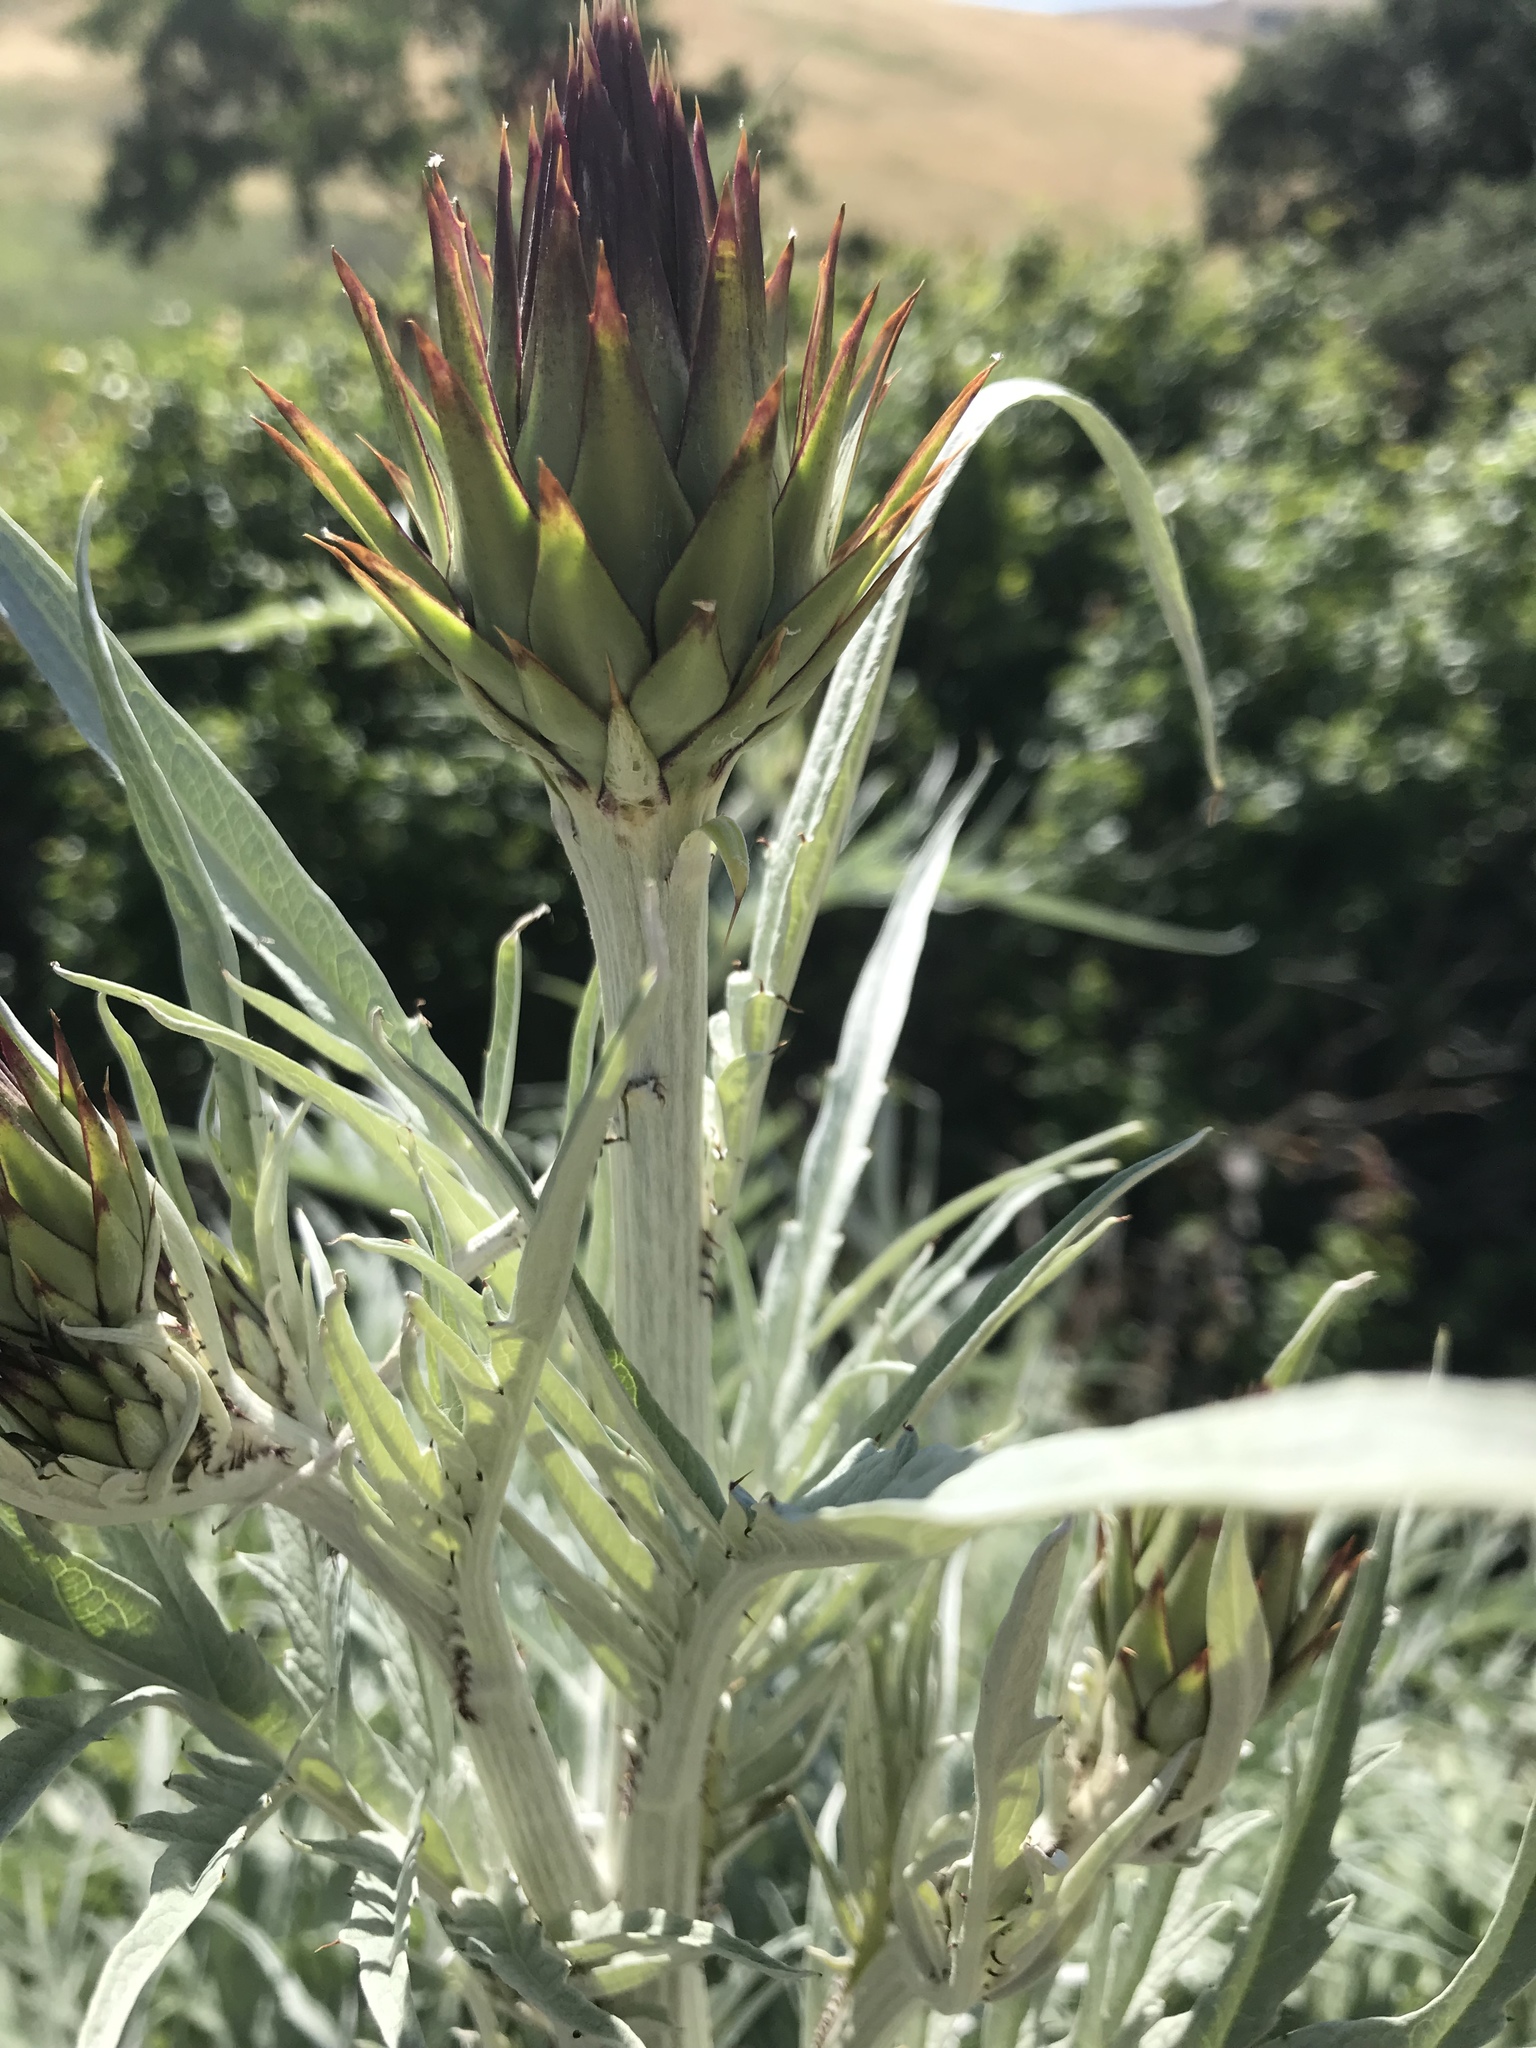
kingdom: Plantae
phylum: Tracheophyta
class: Magnoliopsida
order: Asterales
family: Asteraceae
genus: Cynara
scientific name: Cynara cardunculus
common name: Globe artichoke
